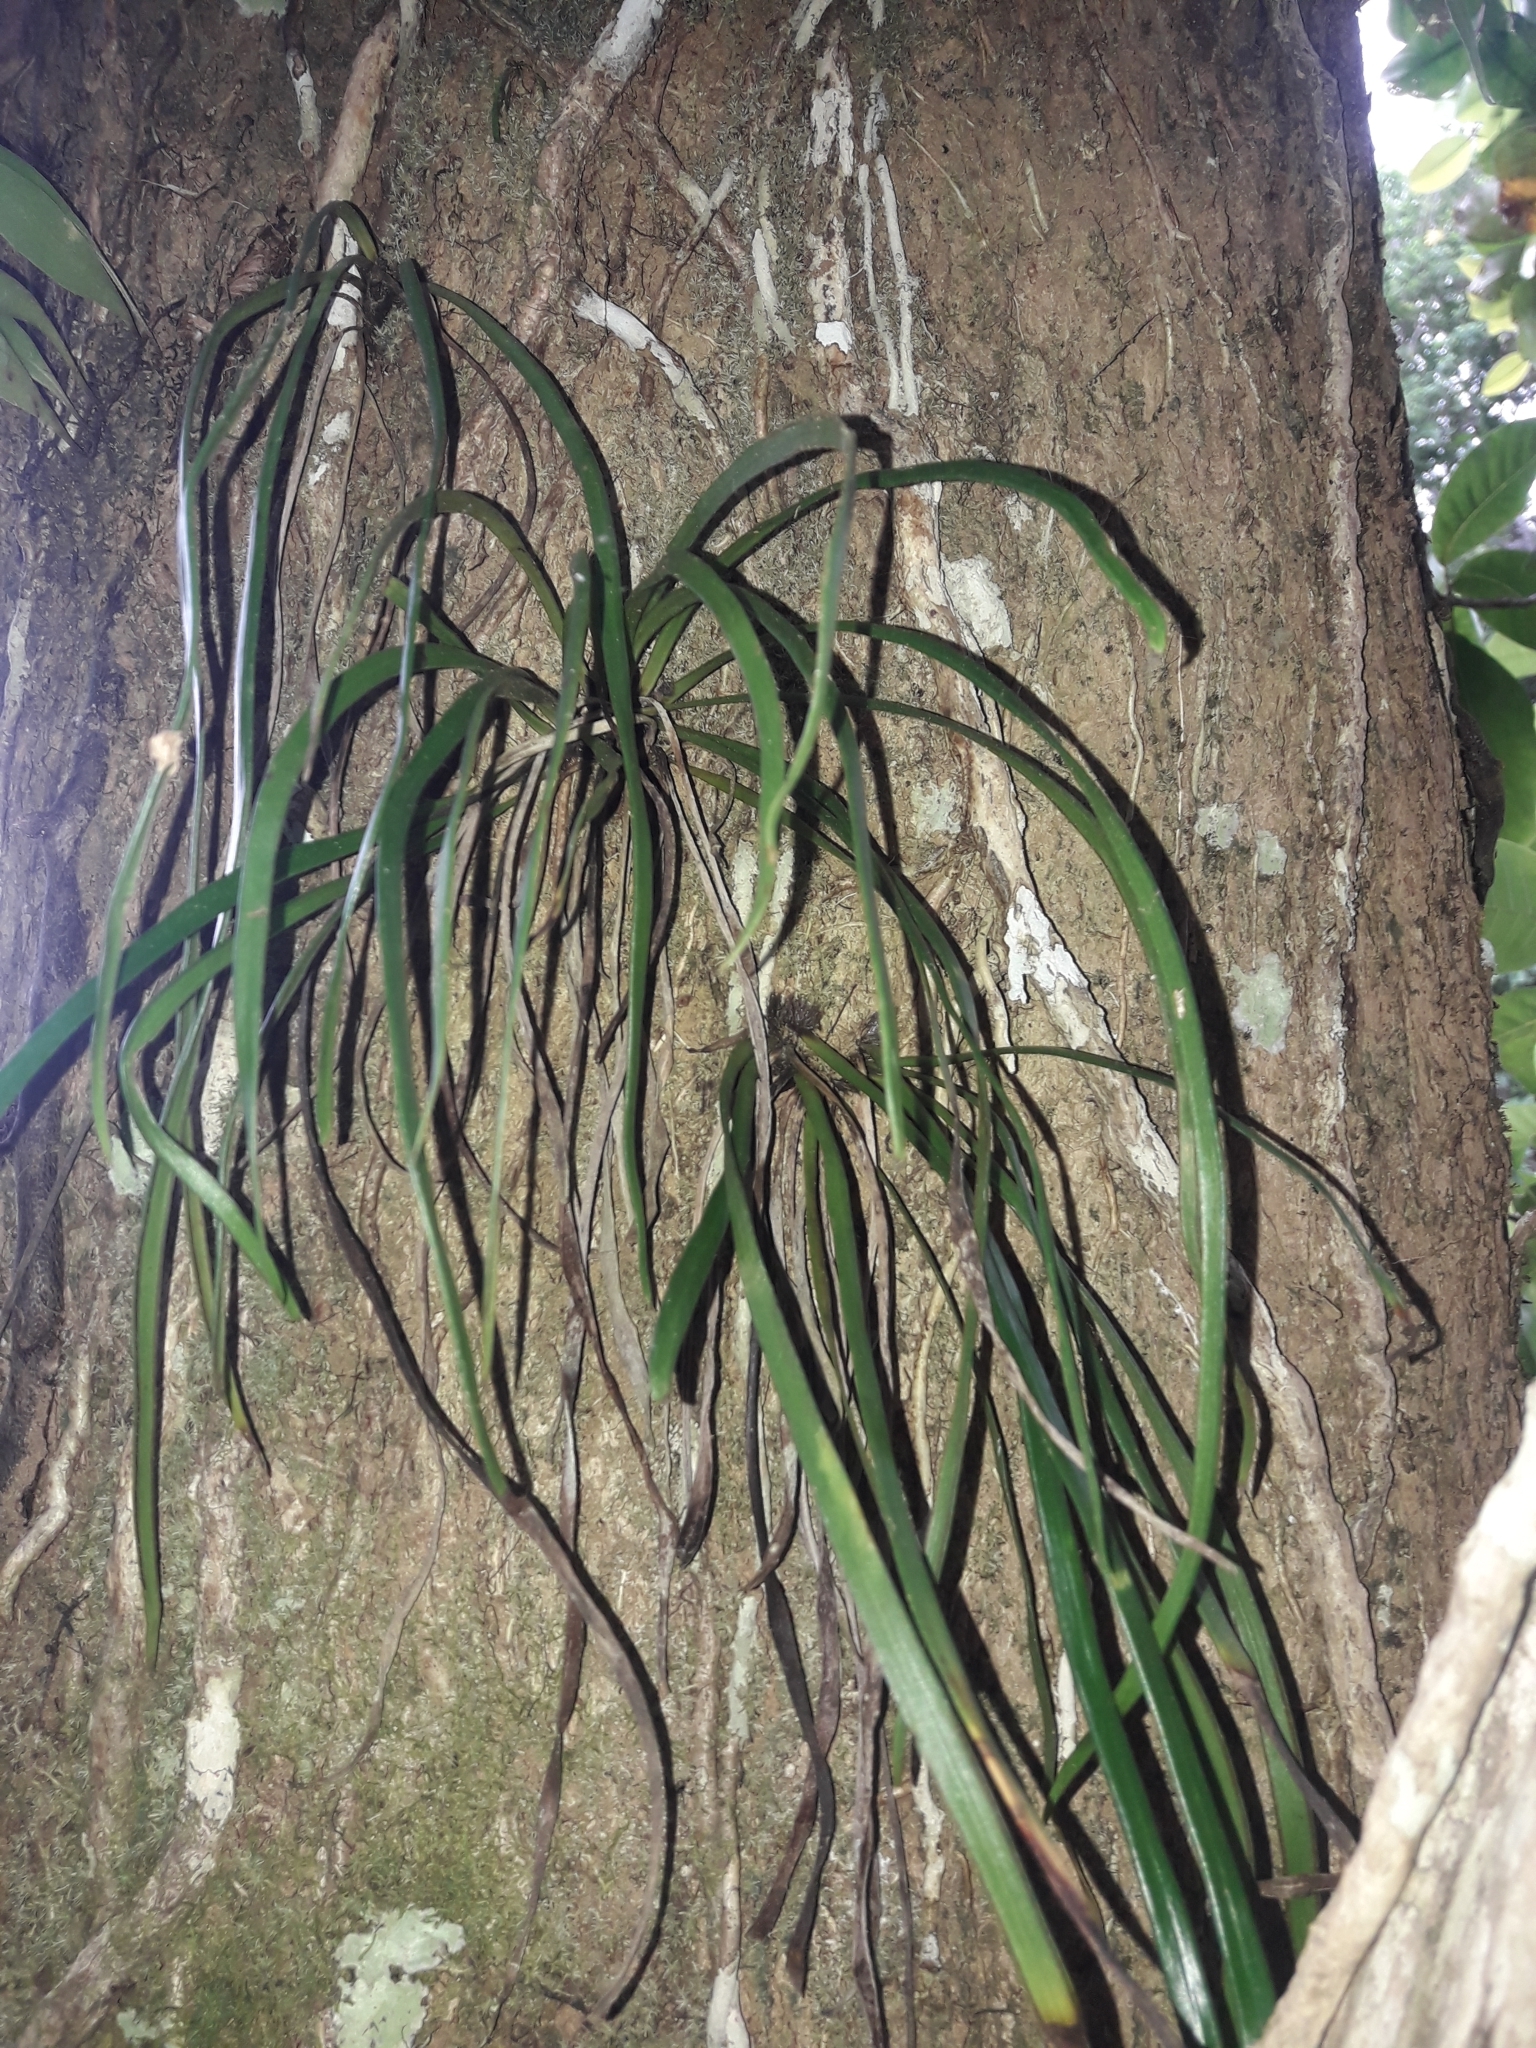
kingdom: Plantae
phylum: Tracheophyta
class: Polypodiopsida
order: Polypodiales
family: Pteridaceae
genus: Haplopteris
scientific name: Haplopteris elongata
